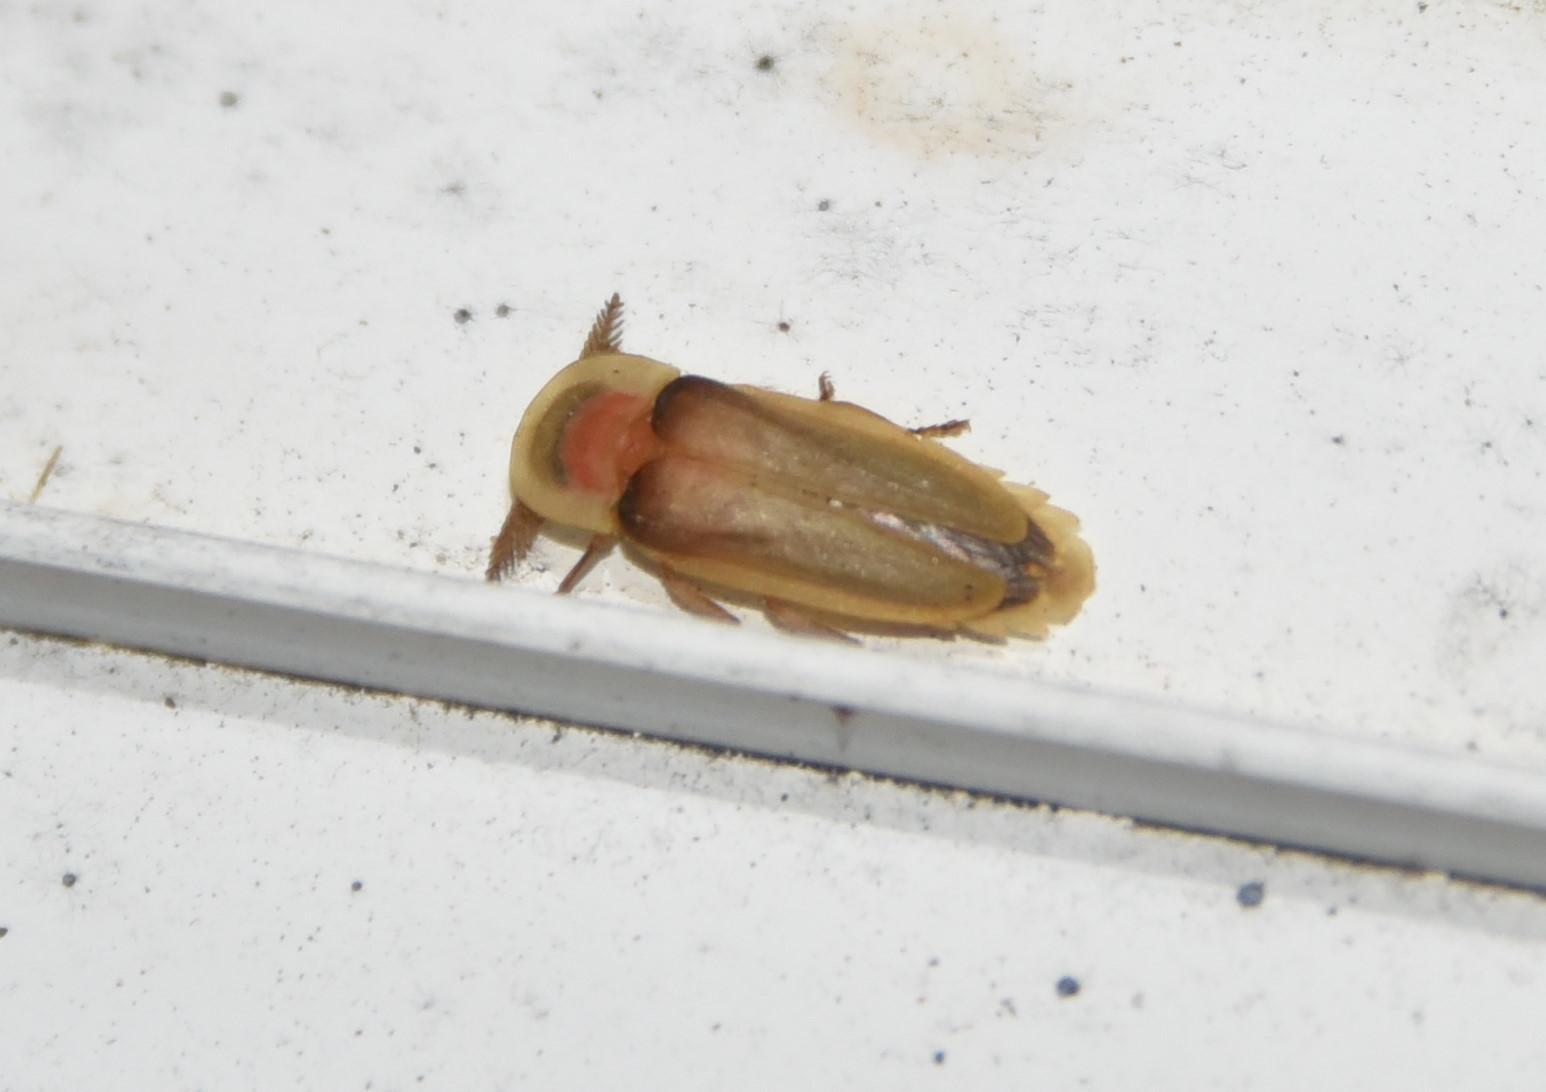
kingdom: Animalia
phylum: Arthropoda
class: Insecta
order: Coleoptera
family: Lampyridae
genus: Pleotomus
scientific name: Pleotomus pallens
